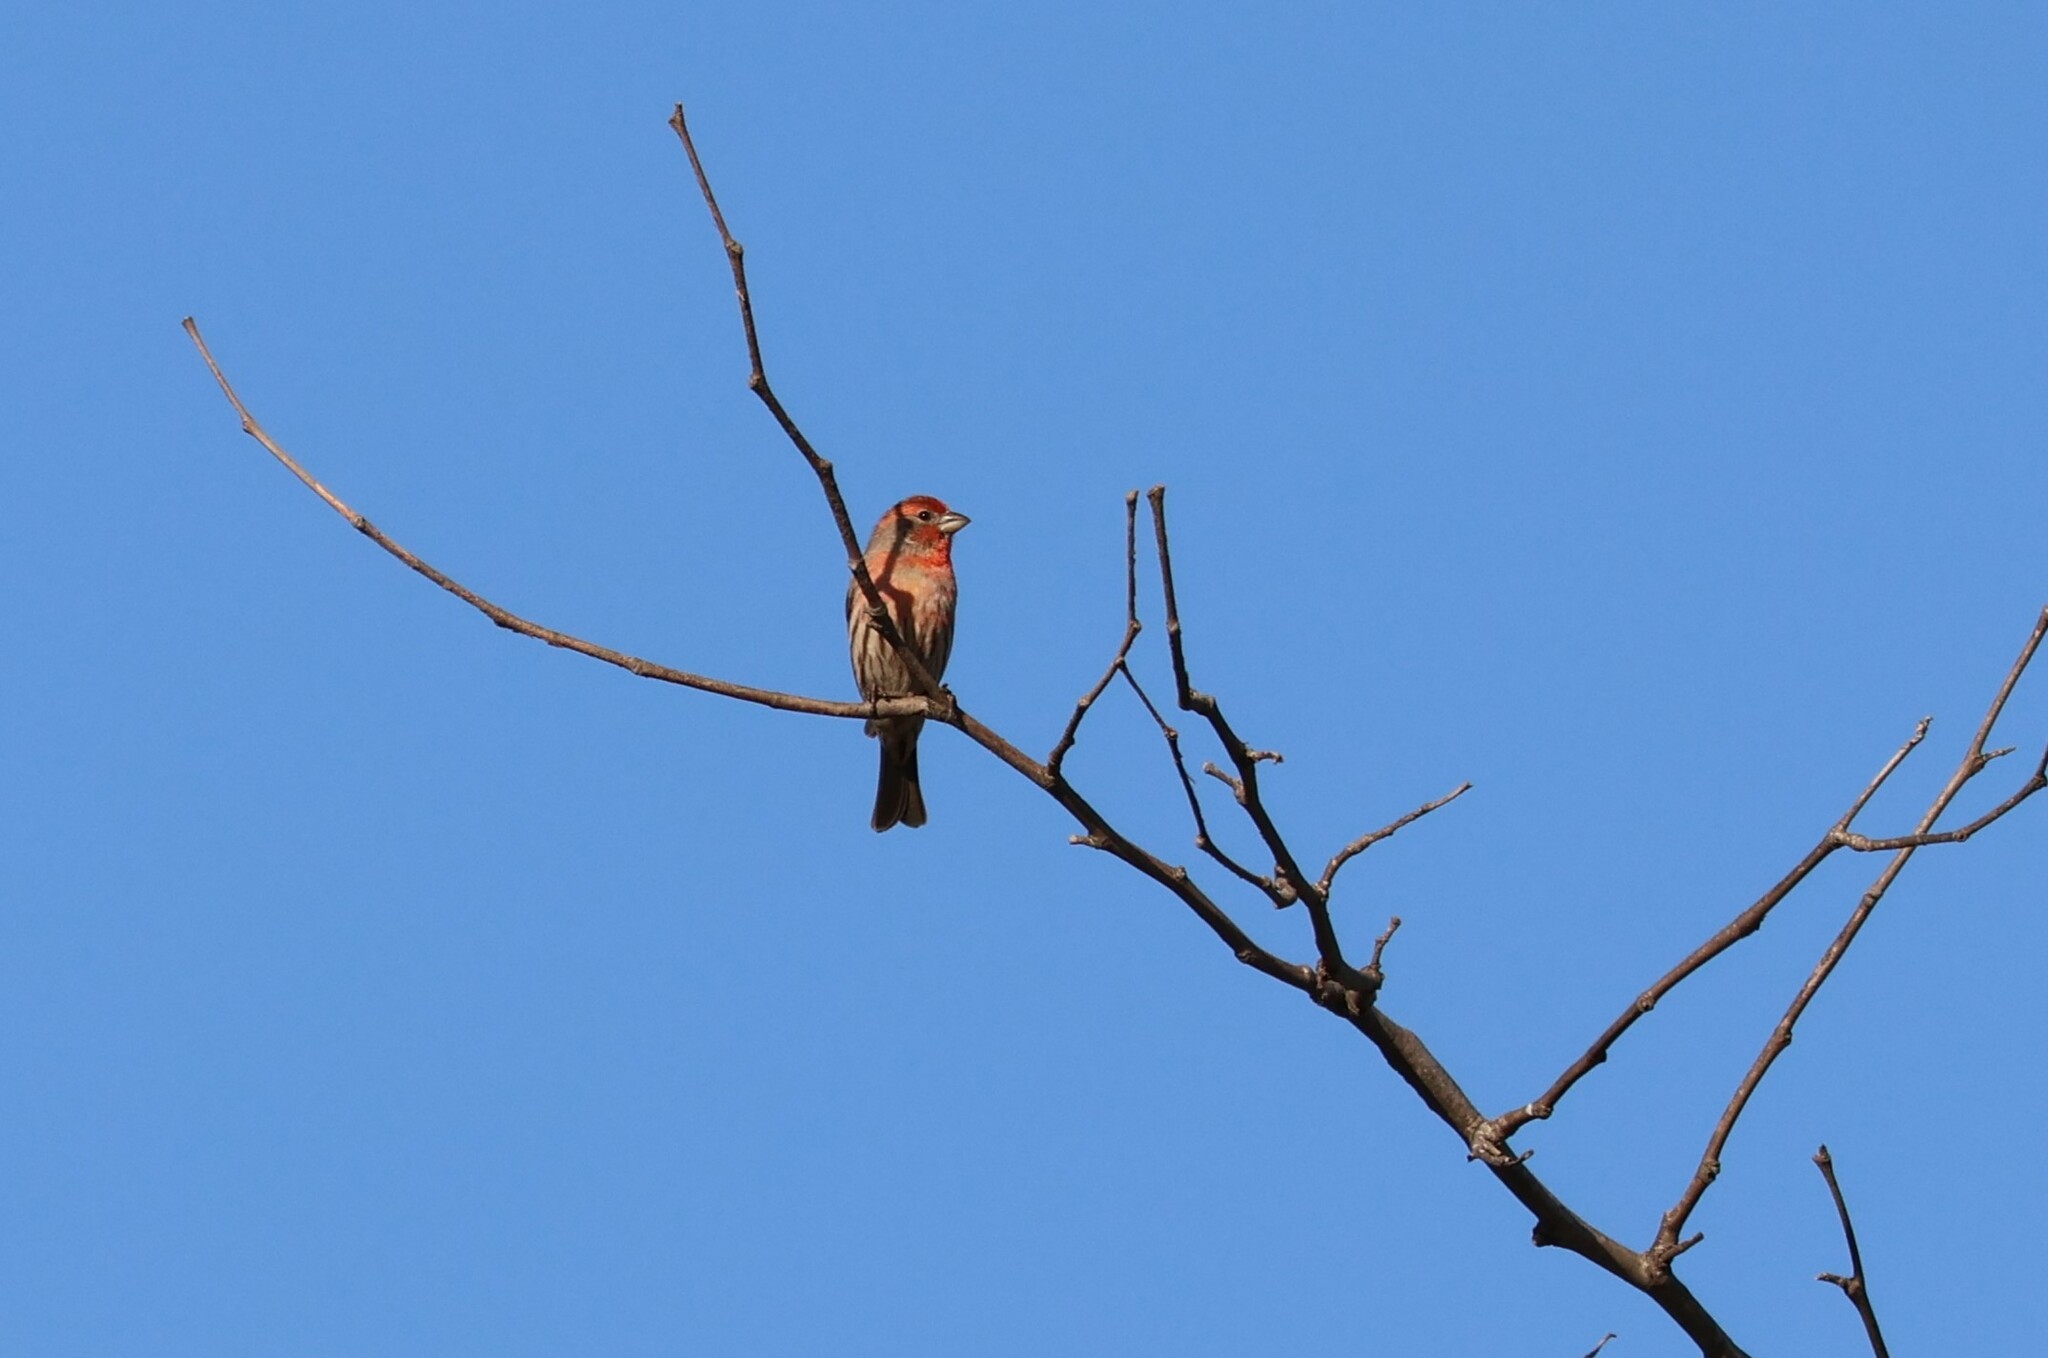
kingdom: Animalia
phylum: Chordata
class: Aves
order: Passeriformes
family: Fringillidae
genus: Haemorhous
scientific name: Haemorhous mexicanus
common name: House finch
